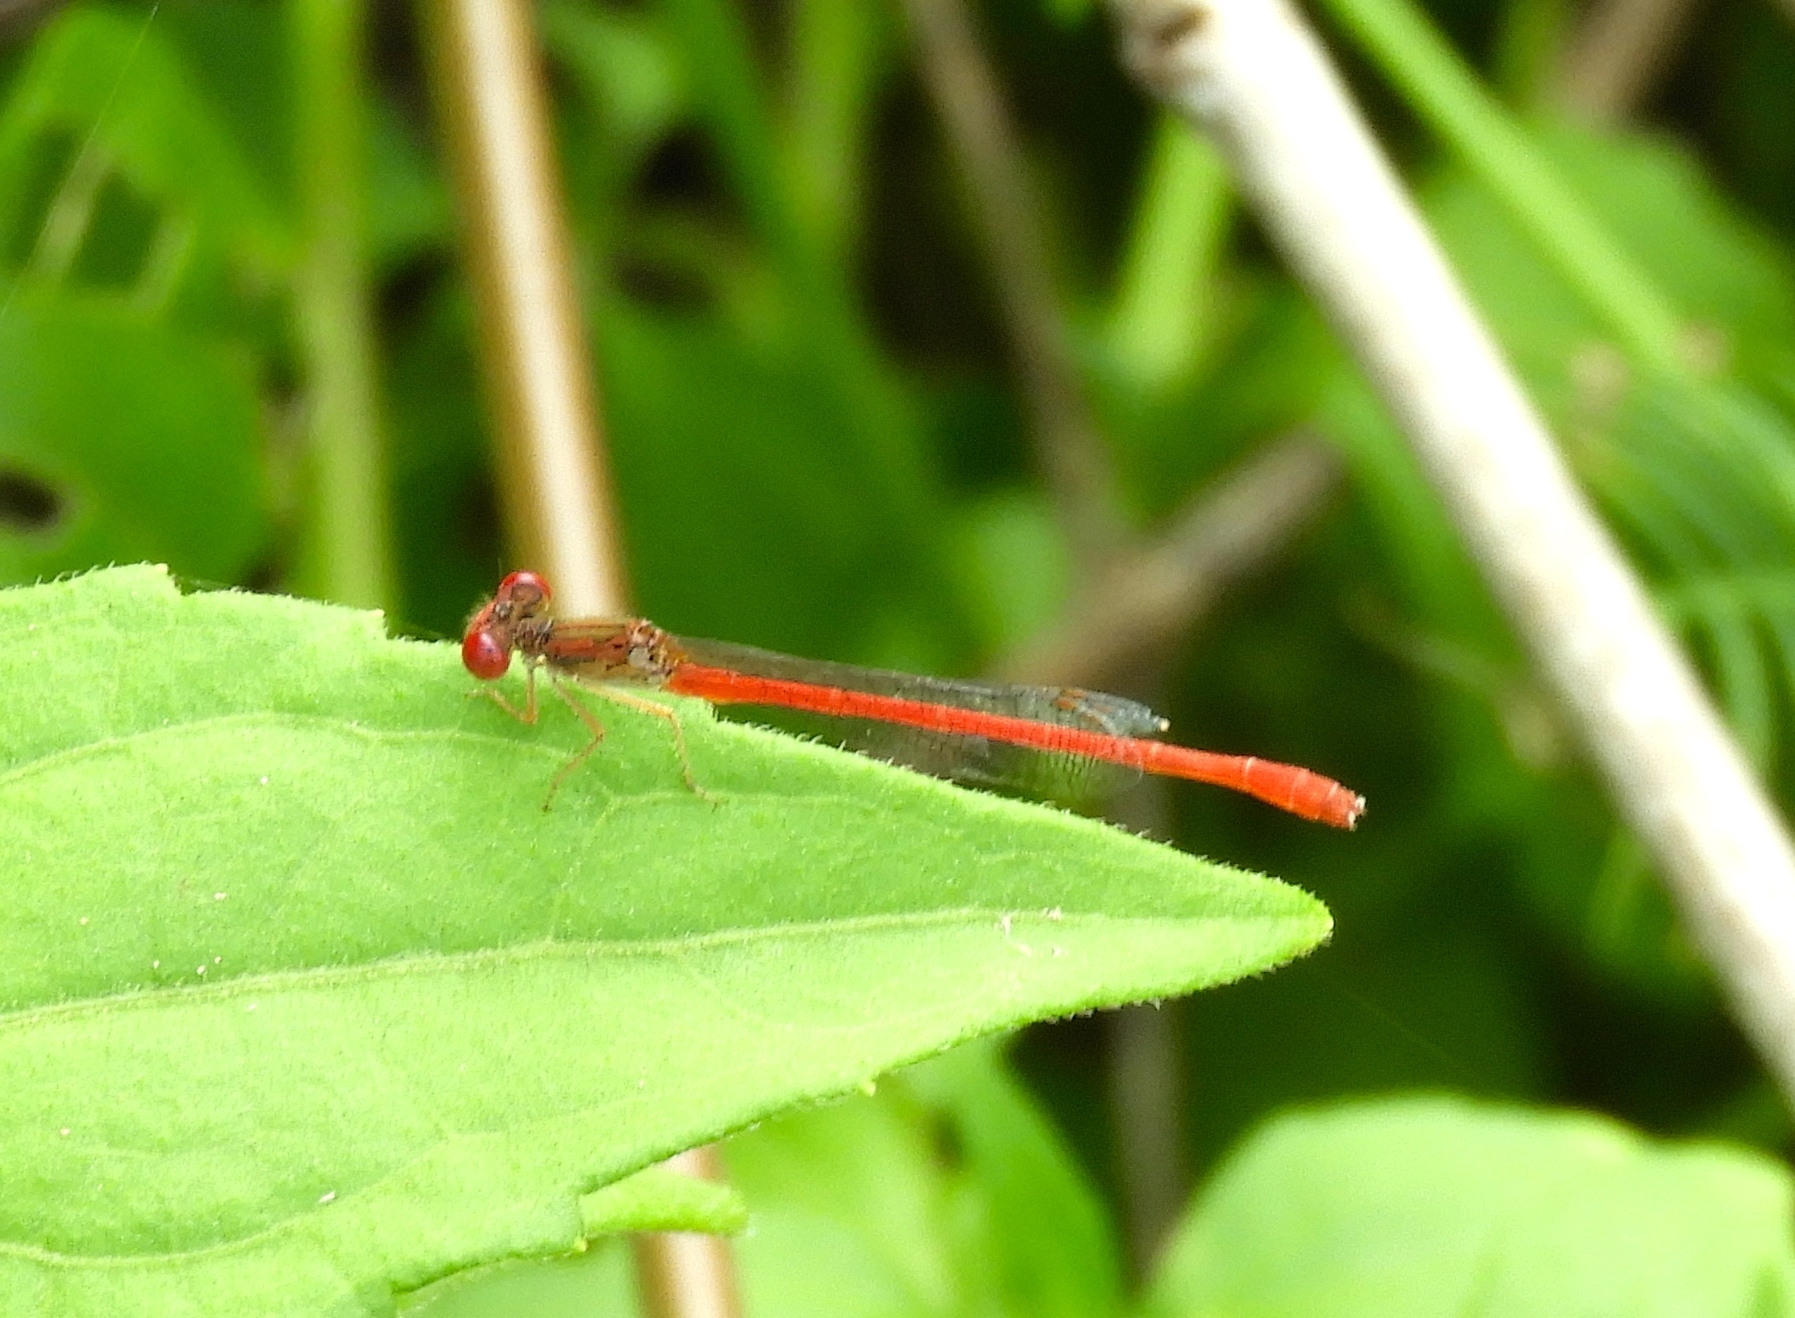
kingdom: Animalia
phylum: Arthropoda
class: Insecta
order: Odonata
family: Coenagrionidae
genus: Telebasis
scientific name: Telebasis salva
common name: Desert firetail
